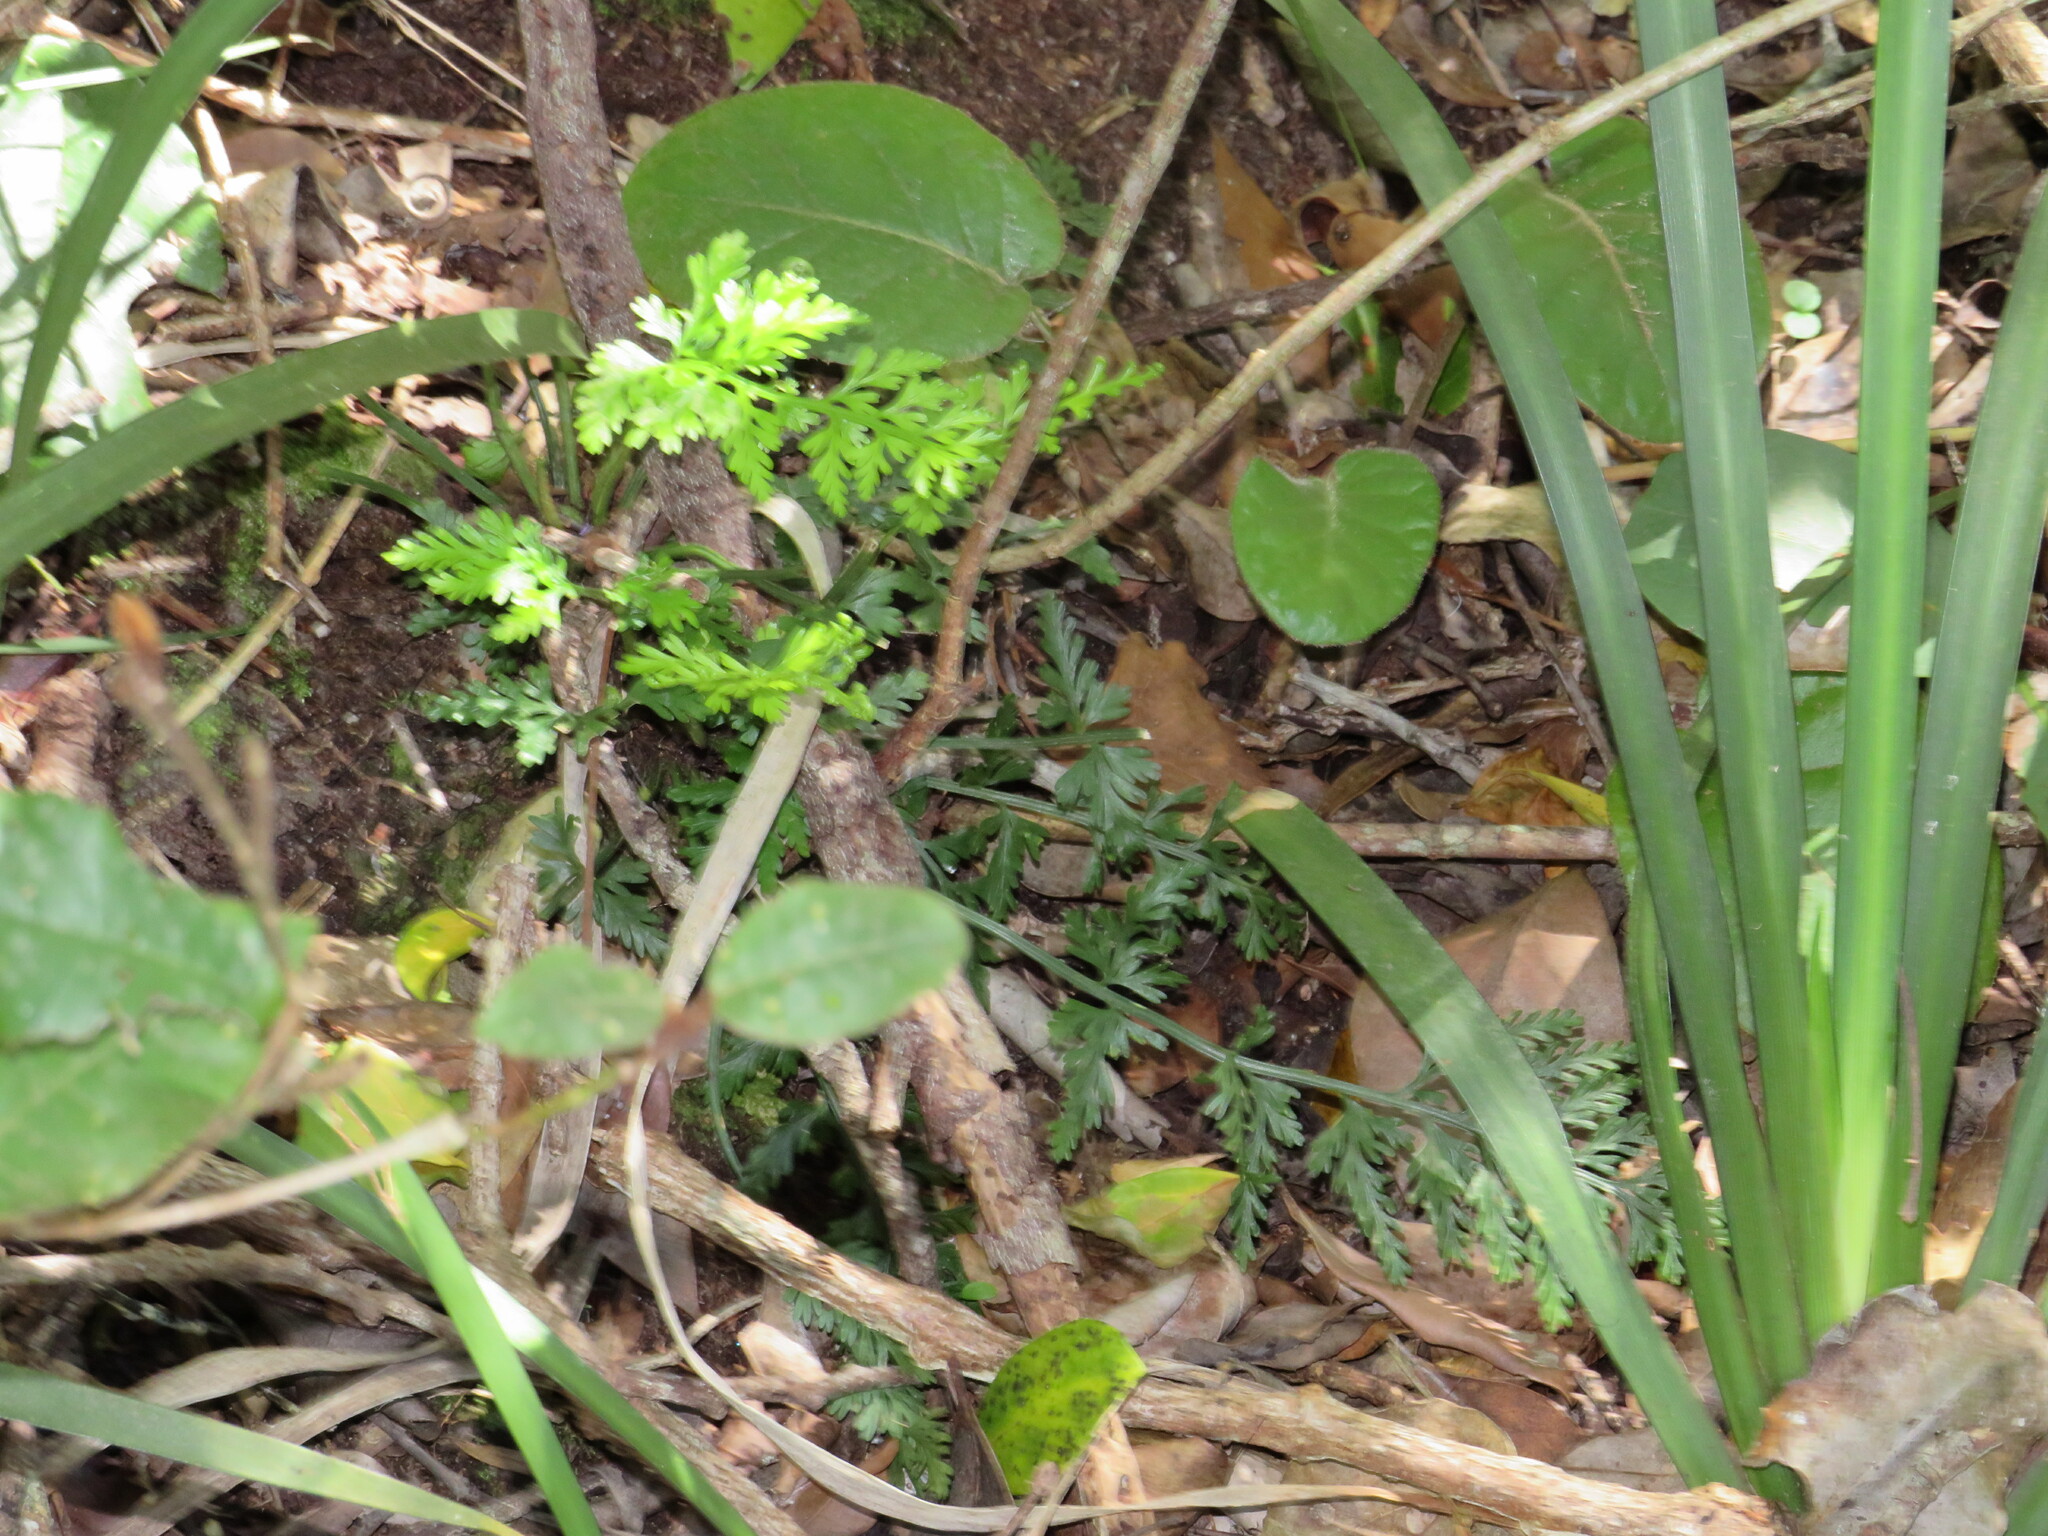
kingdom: Plantae
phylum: Tracheophyta
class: Polypodiopsida
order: Polypodiales
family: Aspleniaceae
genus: Asplenium
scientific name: Asplenium rutifolium
